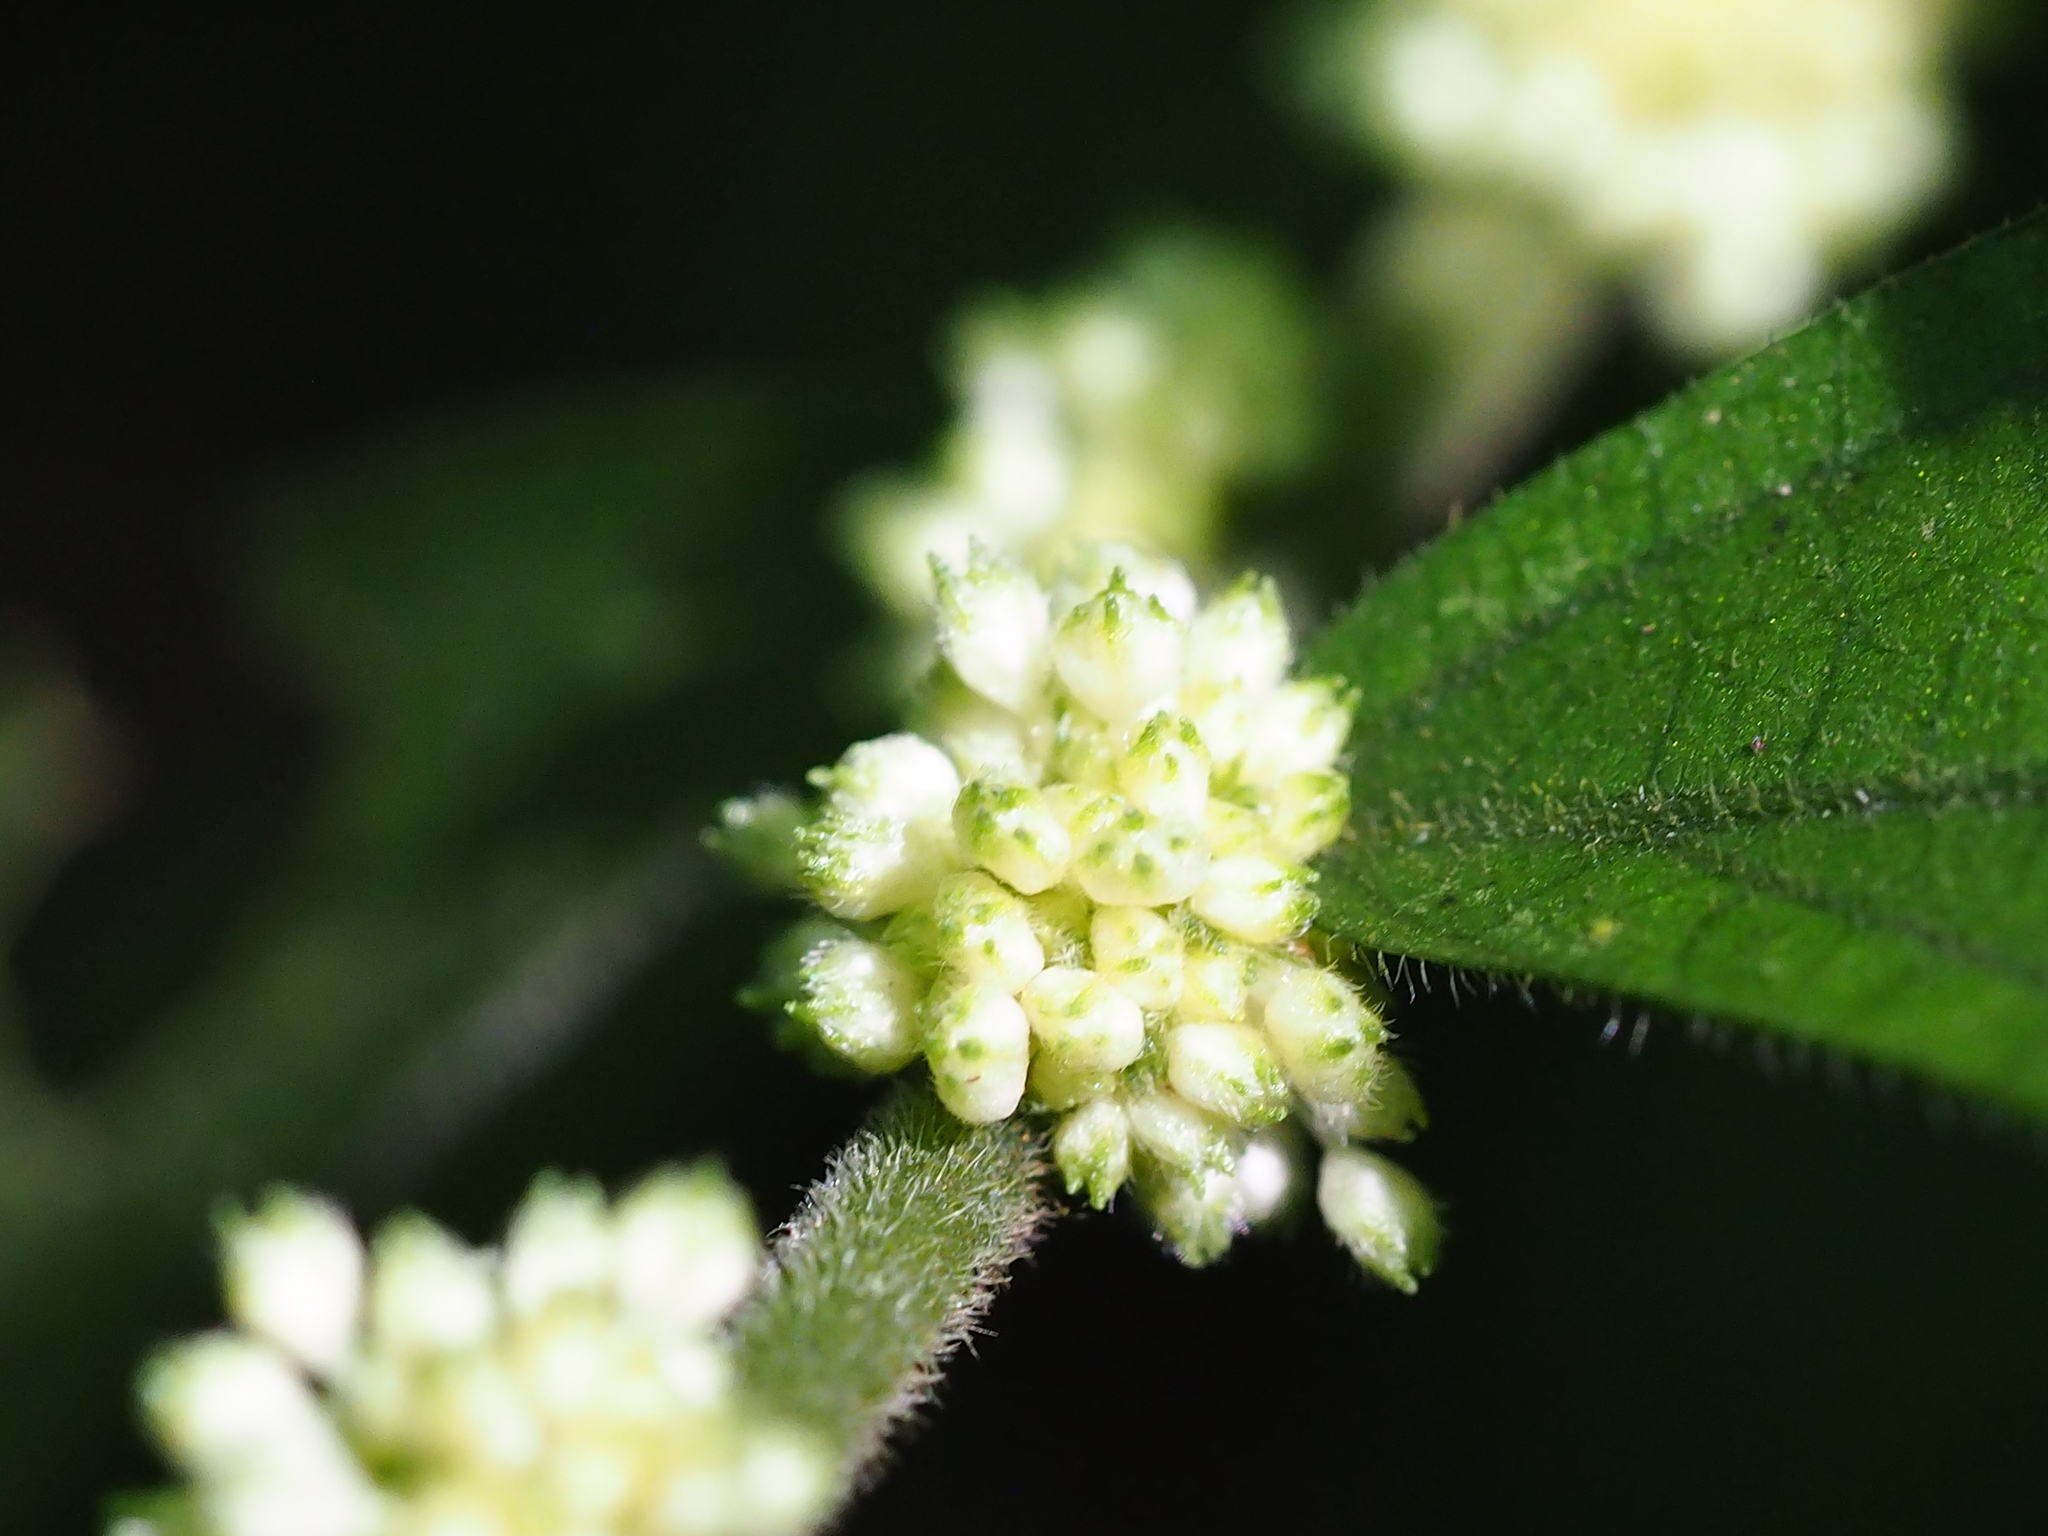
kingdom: Plantae
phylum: Tracheophyta
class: Magnoliopsida
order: Rosales
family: Urticaceae
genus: Elatostema
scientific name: Elatostema lineolatum
